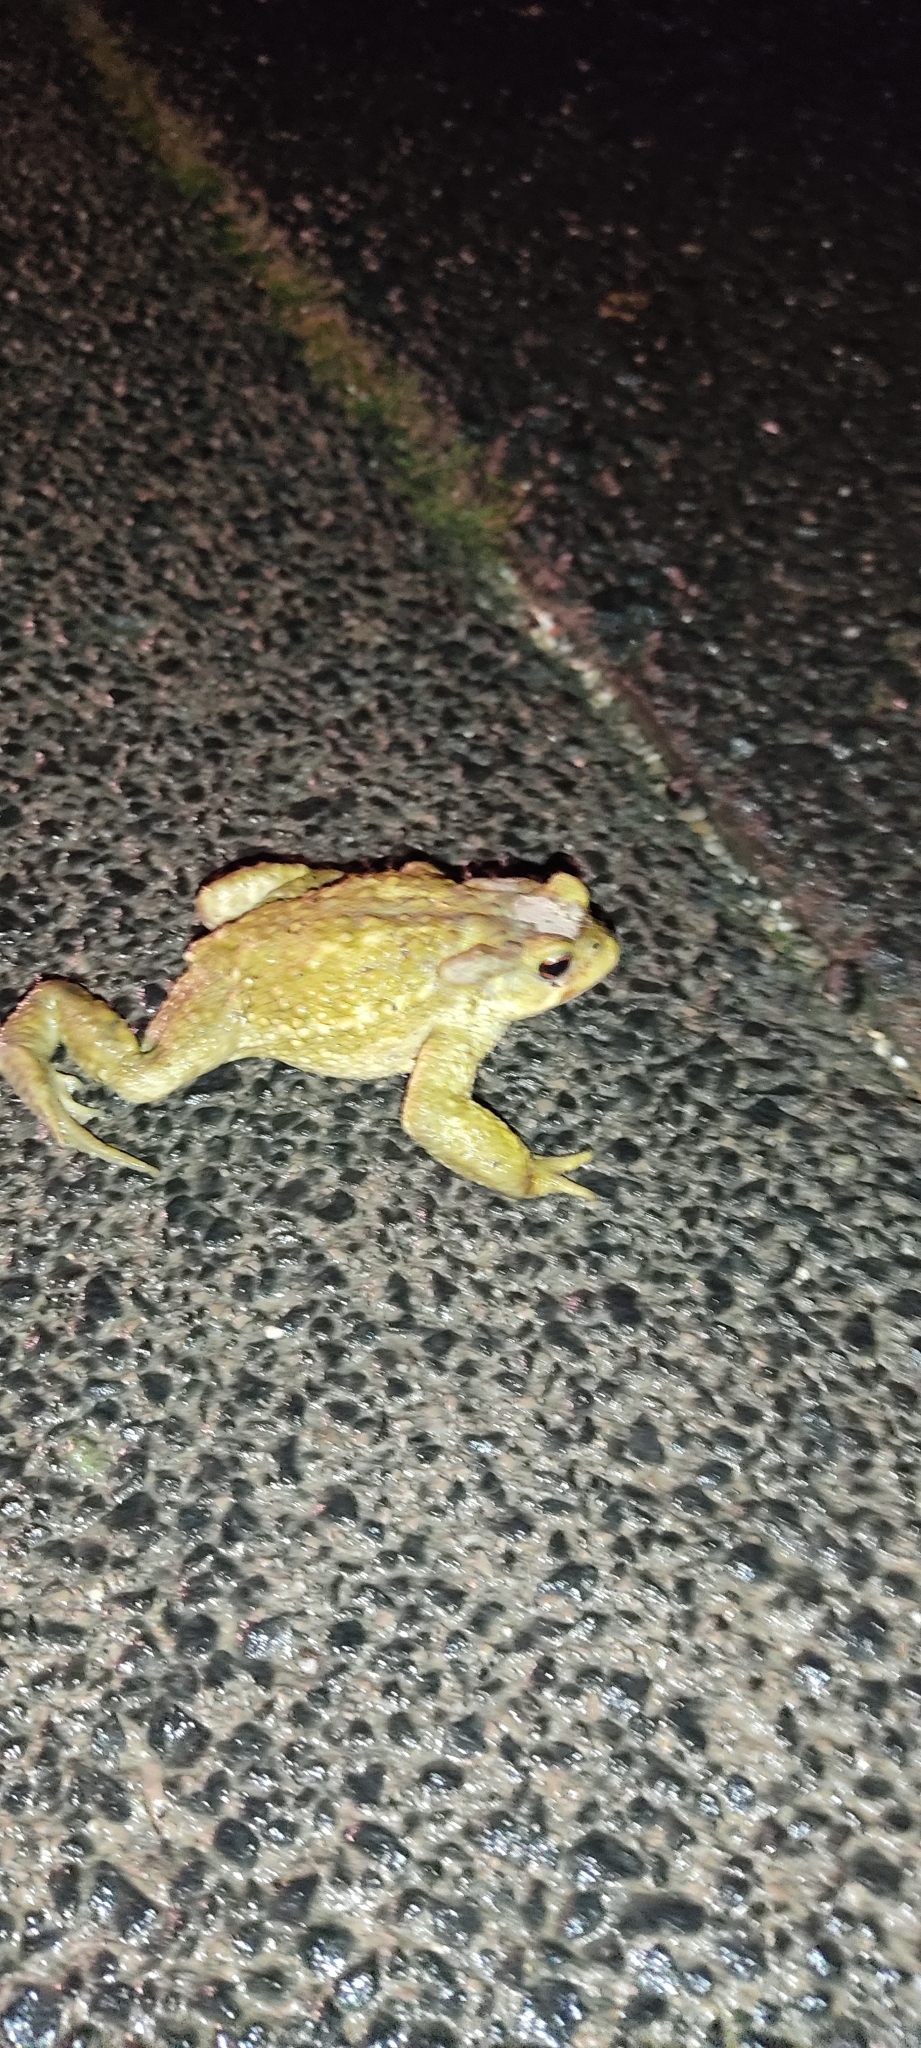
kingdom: Animalia
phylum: Chordata
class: Amphibia
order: Anura
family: Bufonidae
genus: Bufo
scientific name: Bufo spinosus
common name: Western common toad
